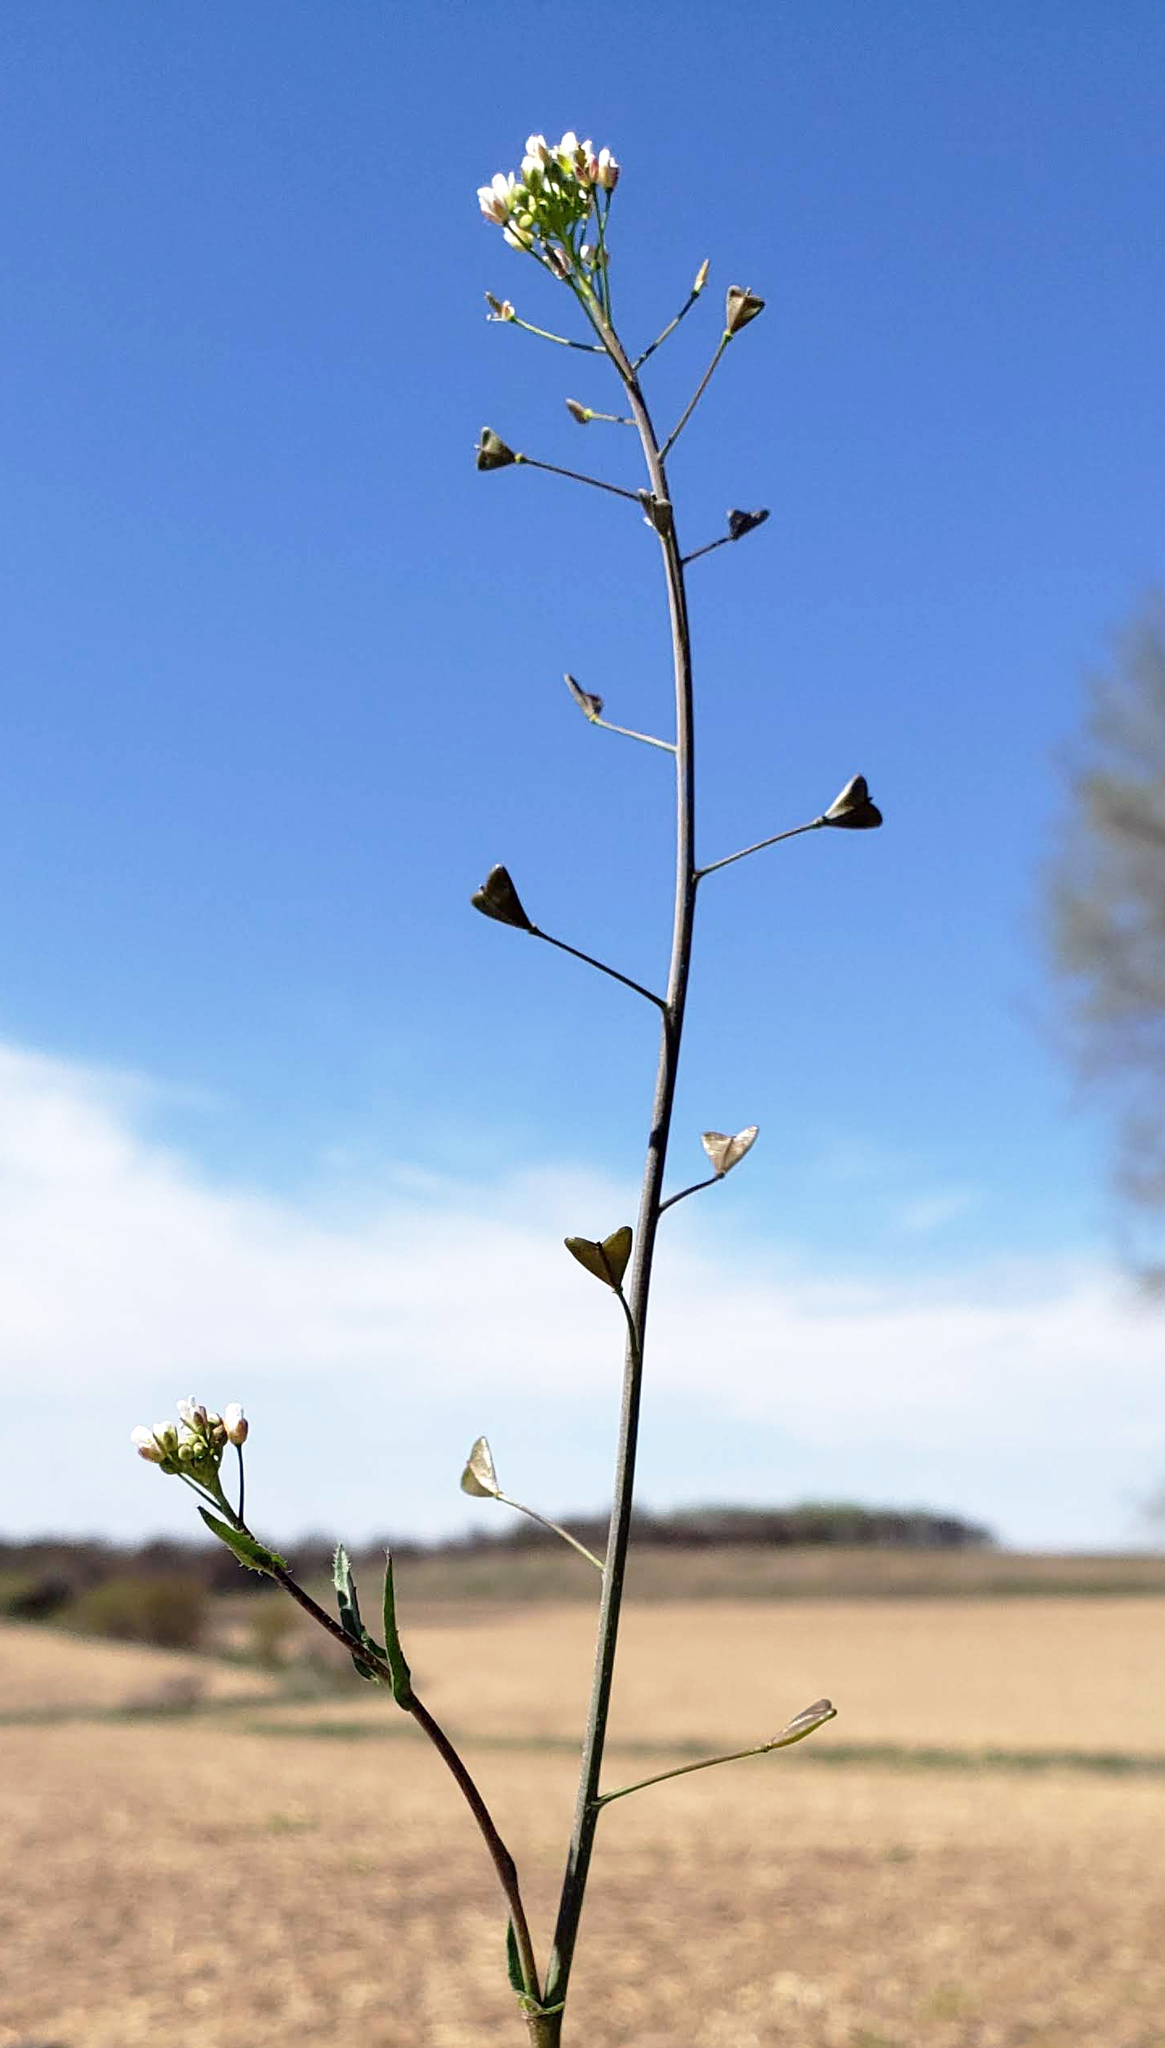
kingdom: Plantae
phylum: Tracheophyta
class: Magnoliopsida
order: Brassicales
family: Brassicaceae
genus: Capsella
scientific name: Capsella bursa-pastoris
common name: Shepherd's purse
